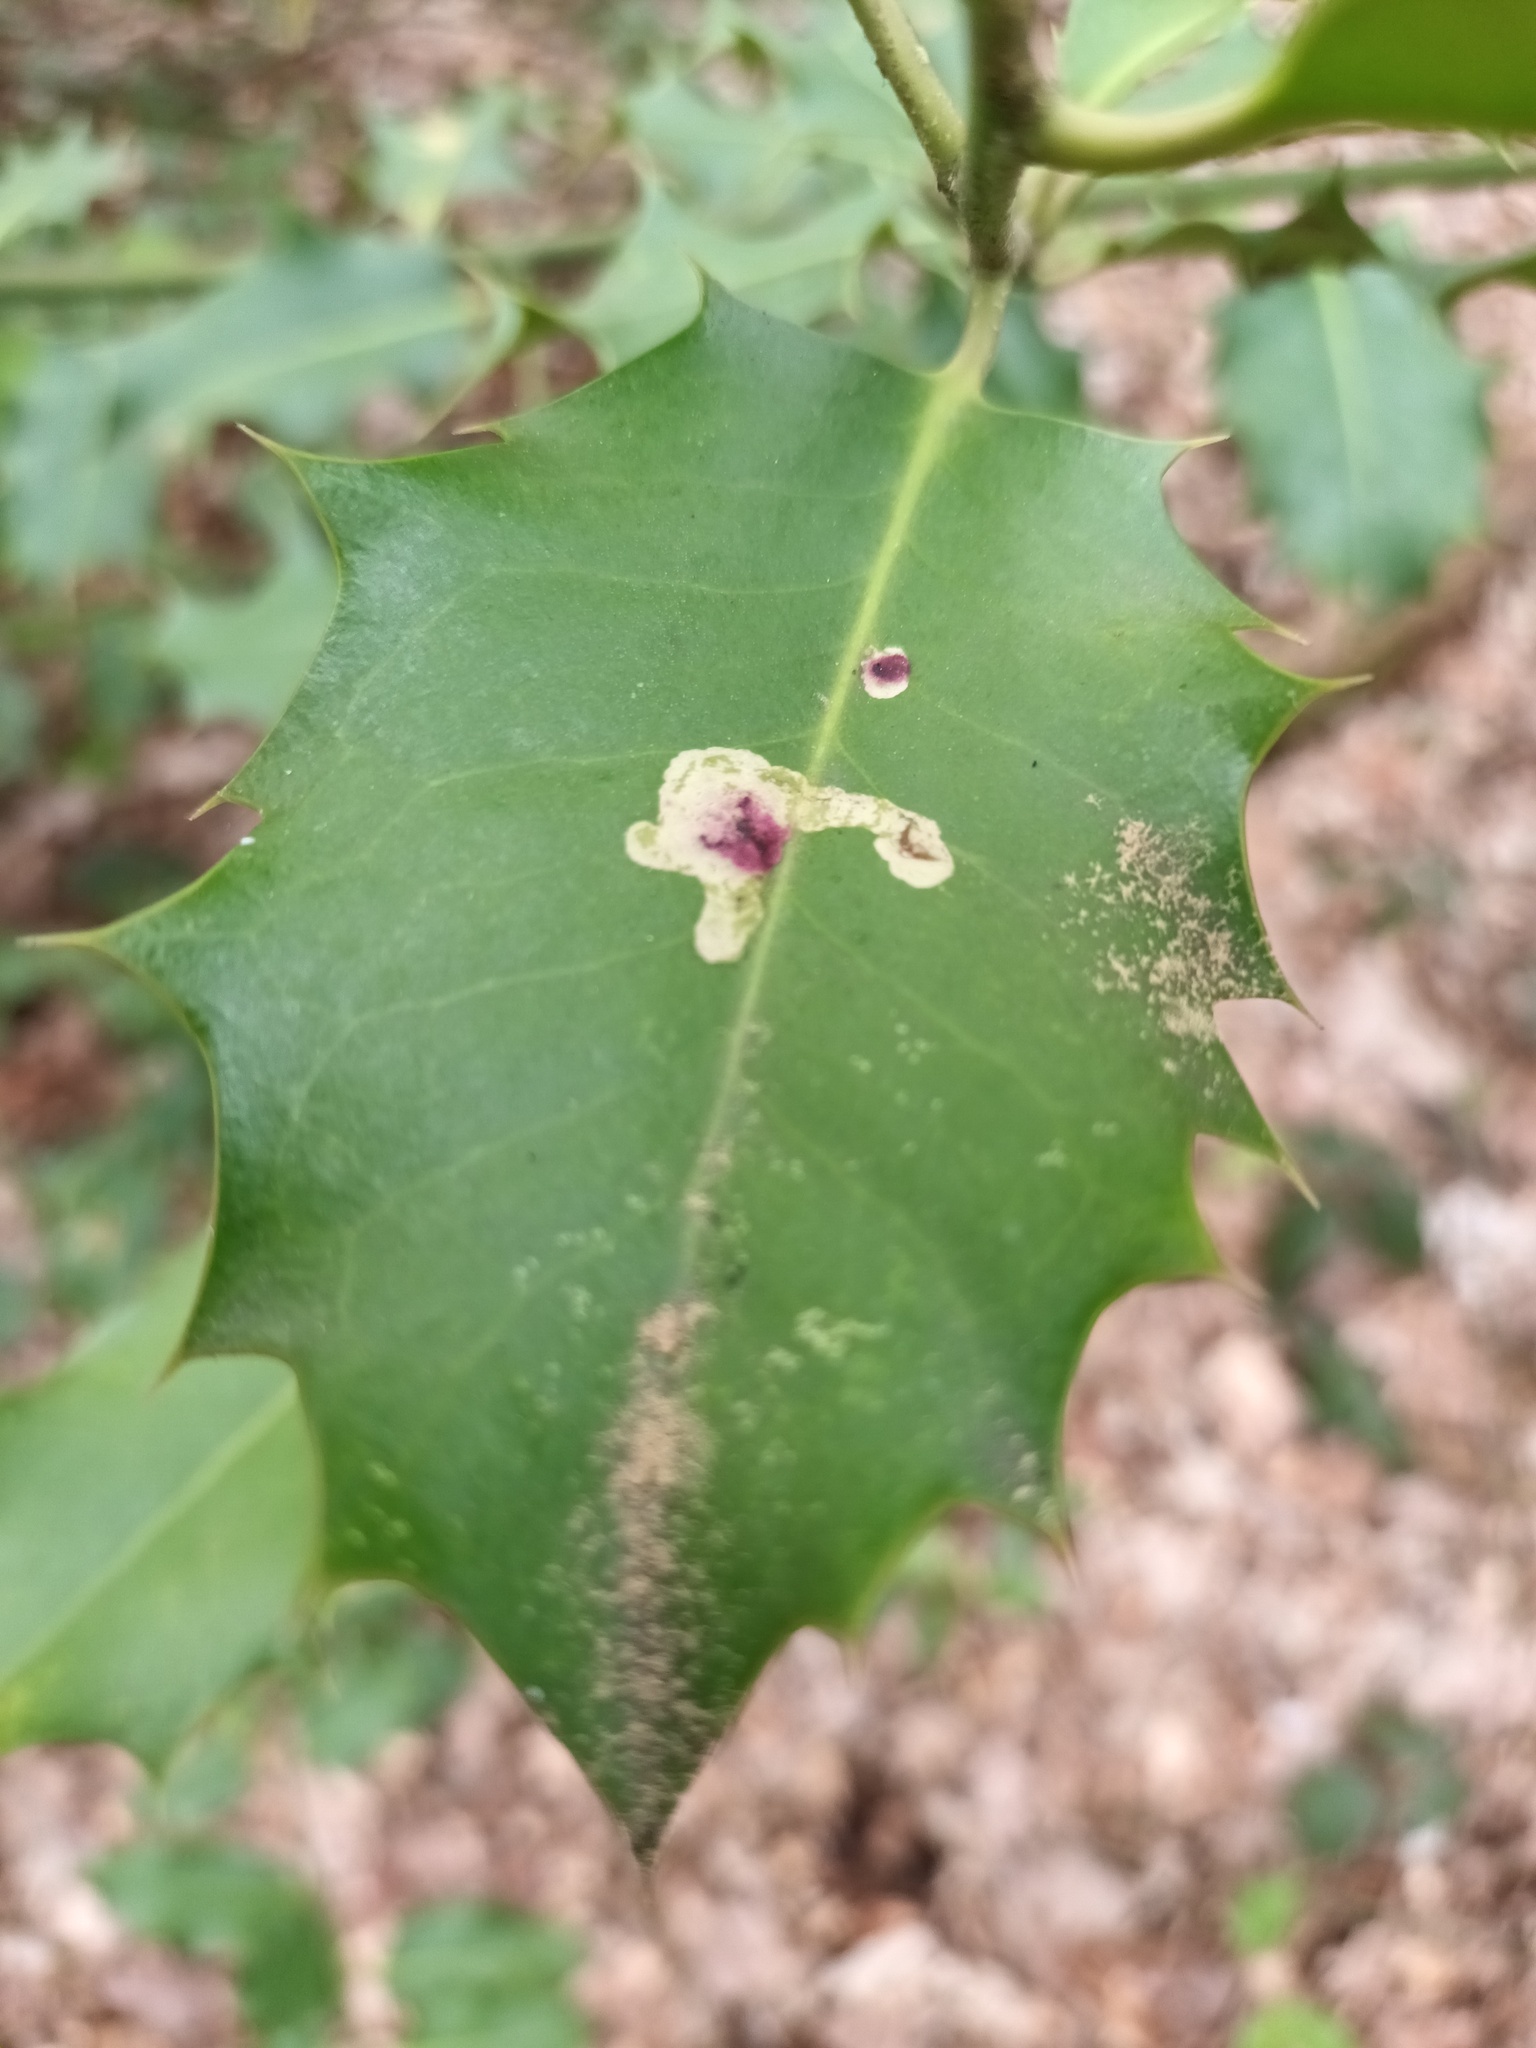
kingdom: Animalia
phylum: Arthropoda
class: Insecta
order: Diptera
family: Agromyzidae
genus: Phytomyza
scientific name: Phytomyza ilicis
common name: Holly leafminer
